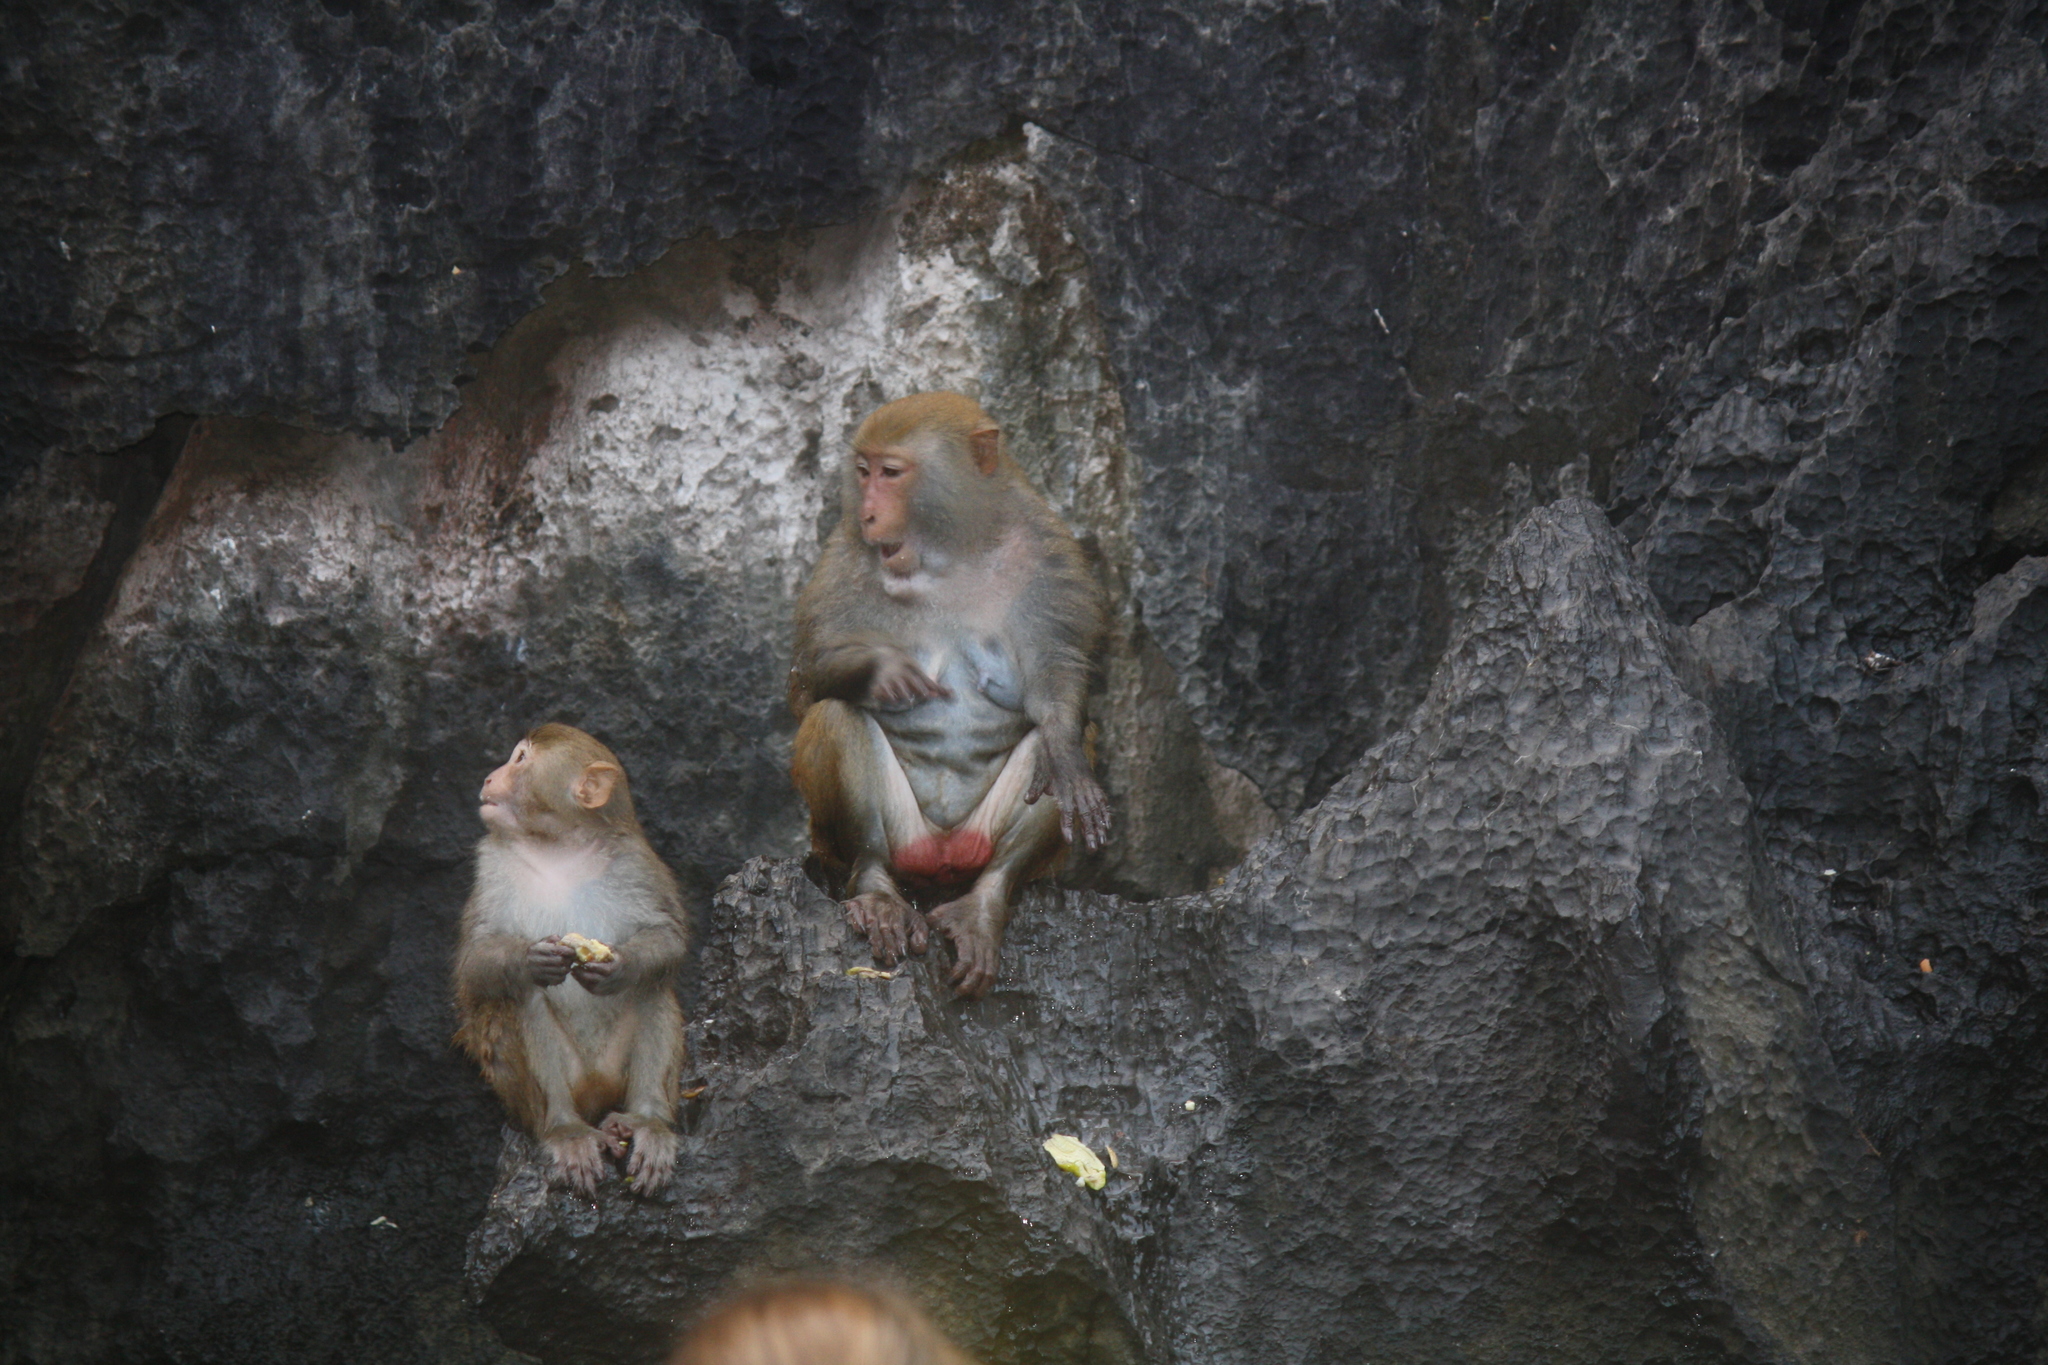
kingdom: Animalia
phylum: Chordata
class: Mammalia
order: Primates
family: Cercopithecidae
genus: Macaca
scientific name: Macaca mulatta
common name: Rhesus monkey
